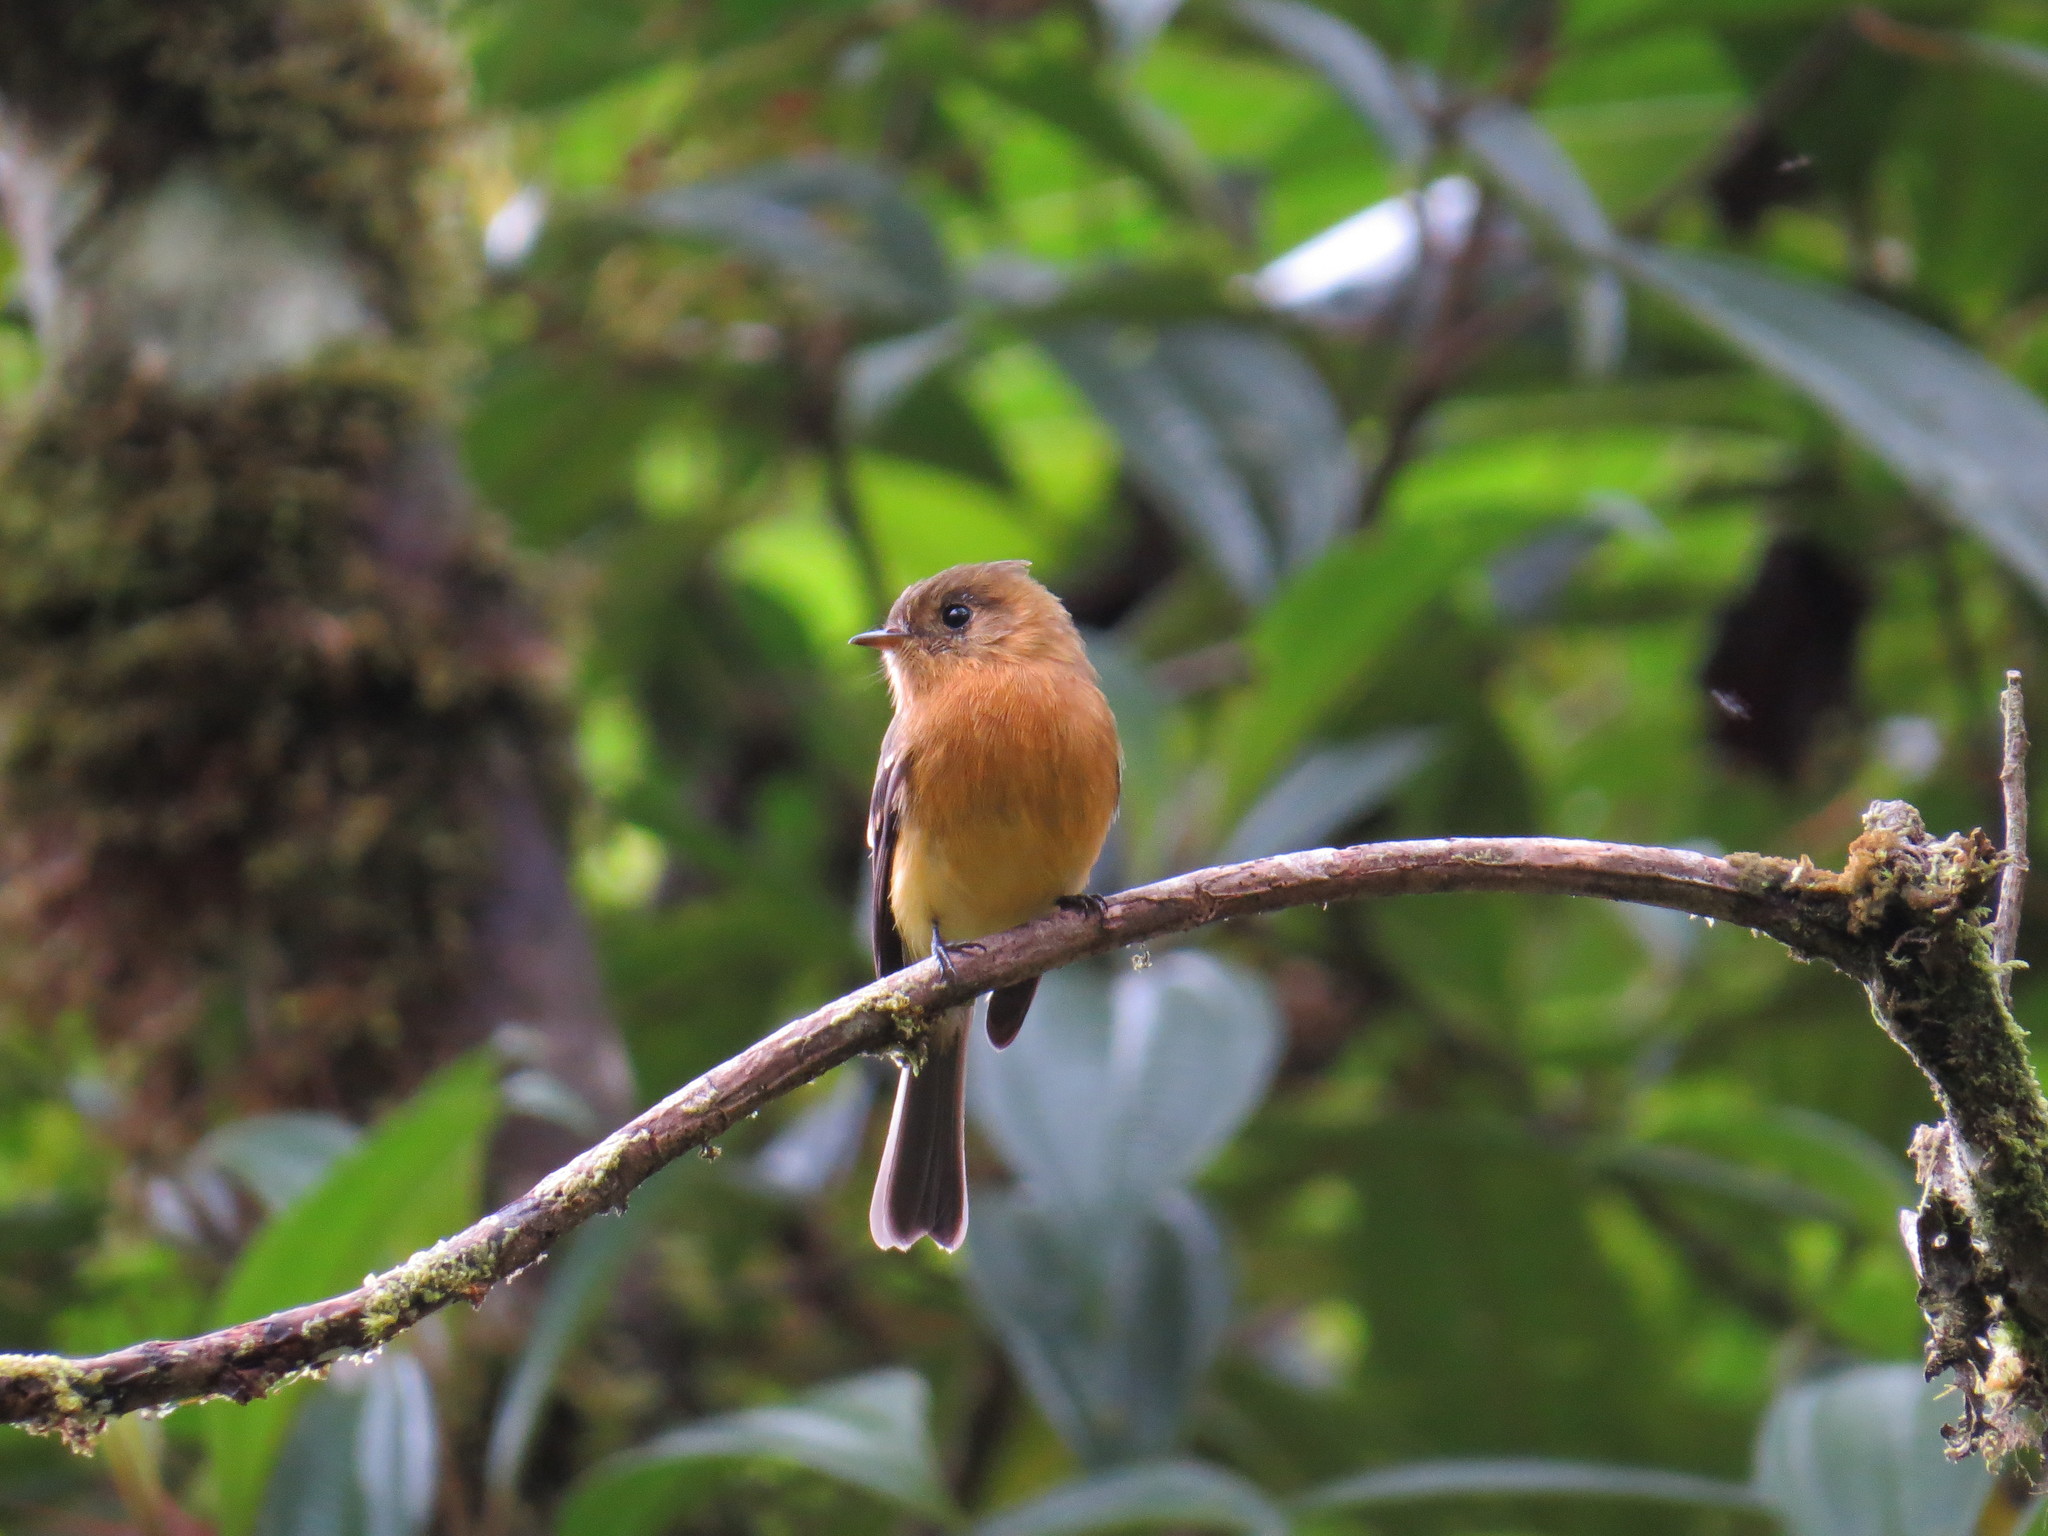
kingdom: Animalia
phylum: Chordata
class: Aves
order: Passeriformes
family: Tyrannidae
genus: Mitrephanes
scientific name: Mitrephanes phaeocercus
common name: Northern tufted flycatcher
